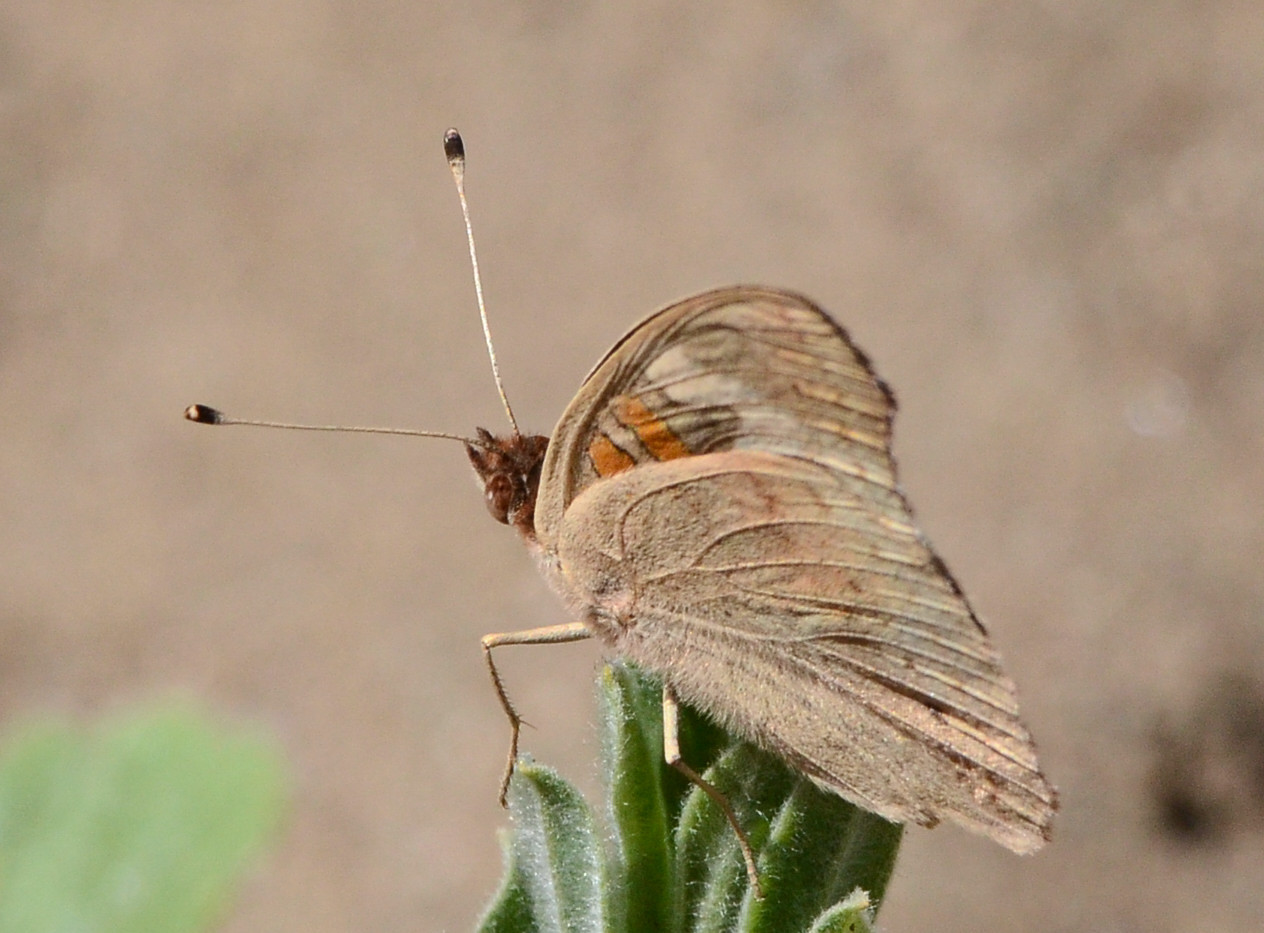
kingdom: Animalia
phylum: Arthropoda
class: Insecta
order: Lepidoptera
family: Nymphalidae
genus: Junonia
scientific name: Junonia grisea
